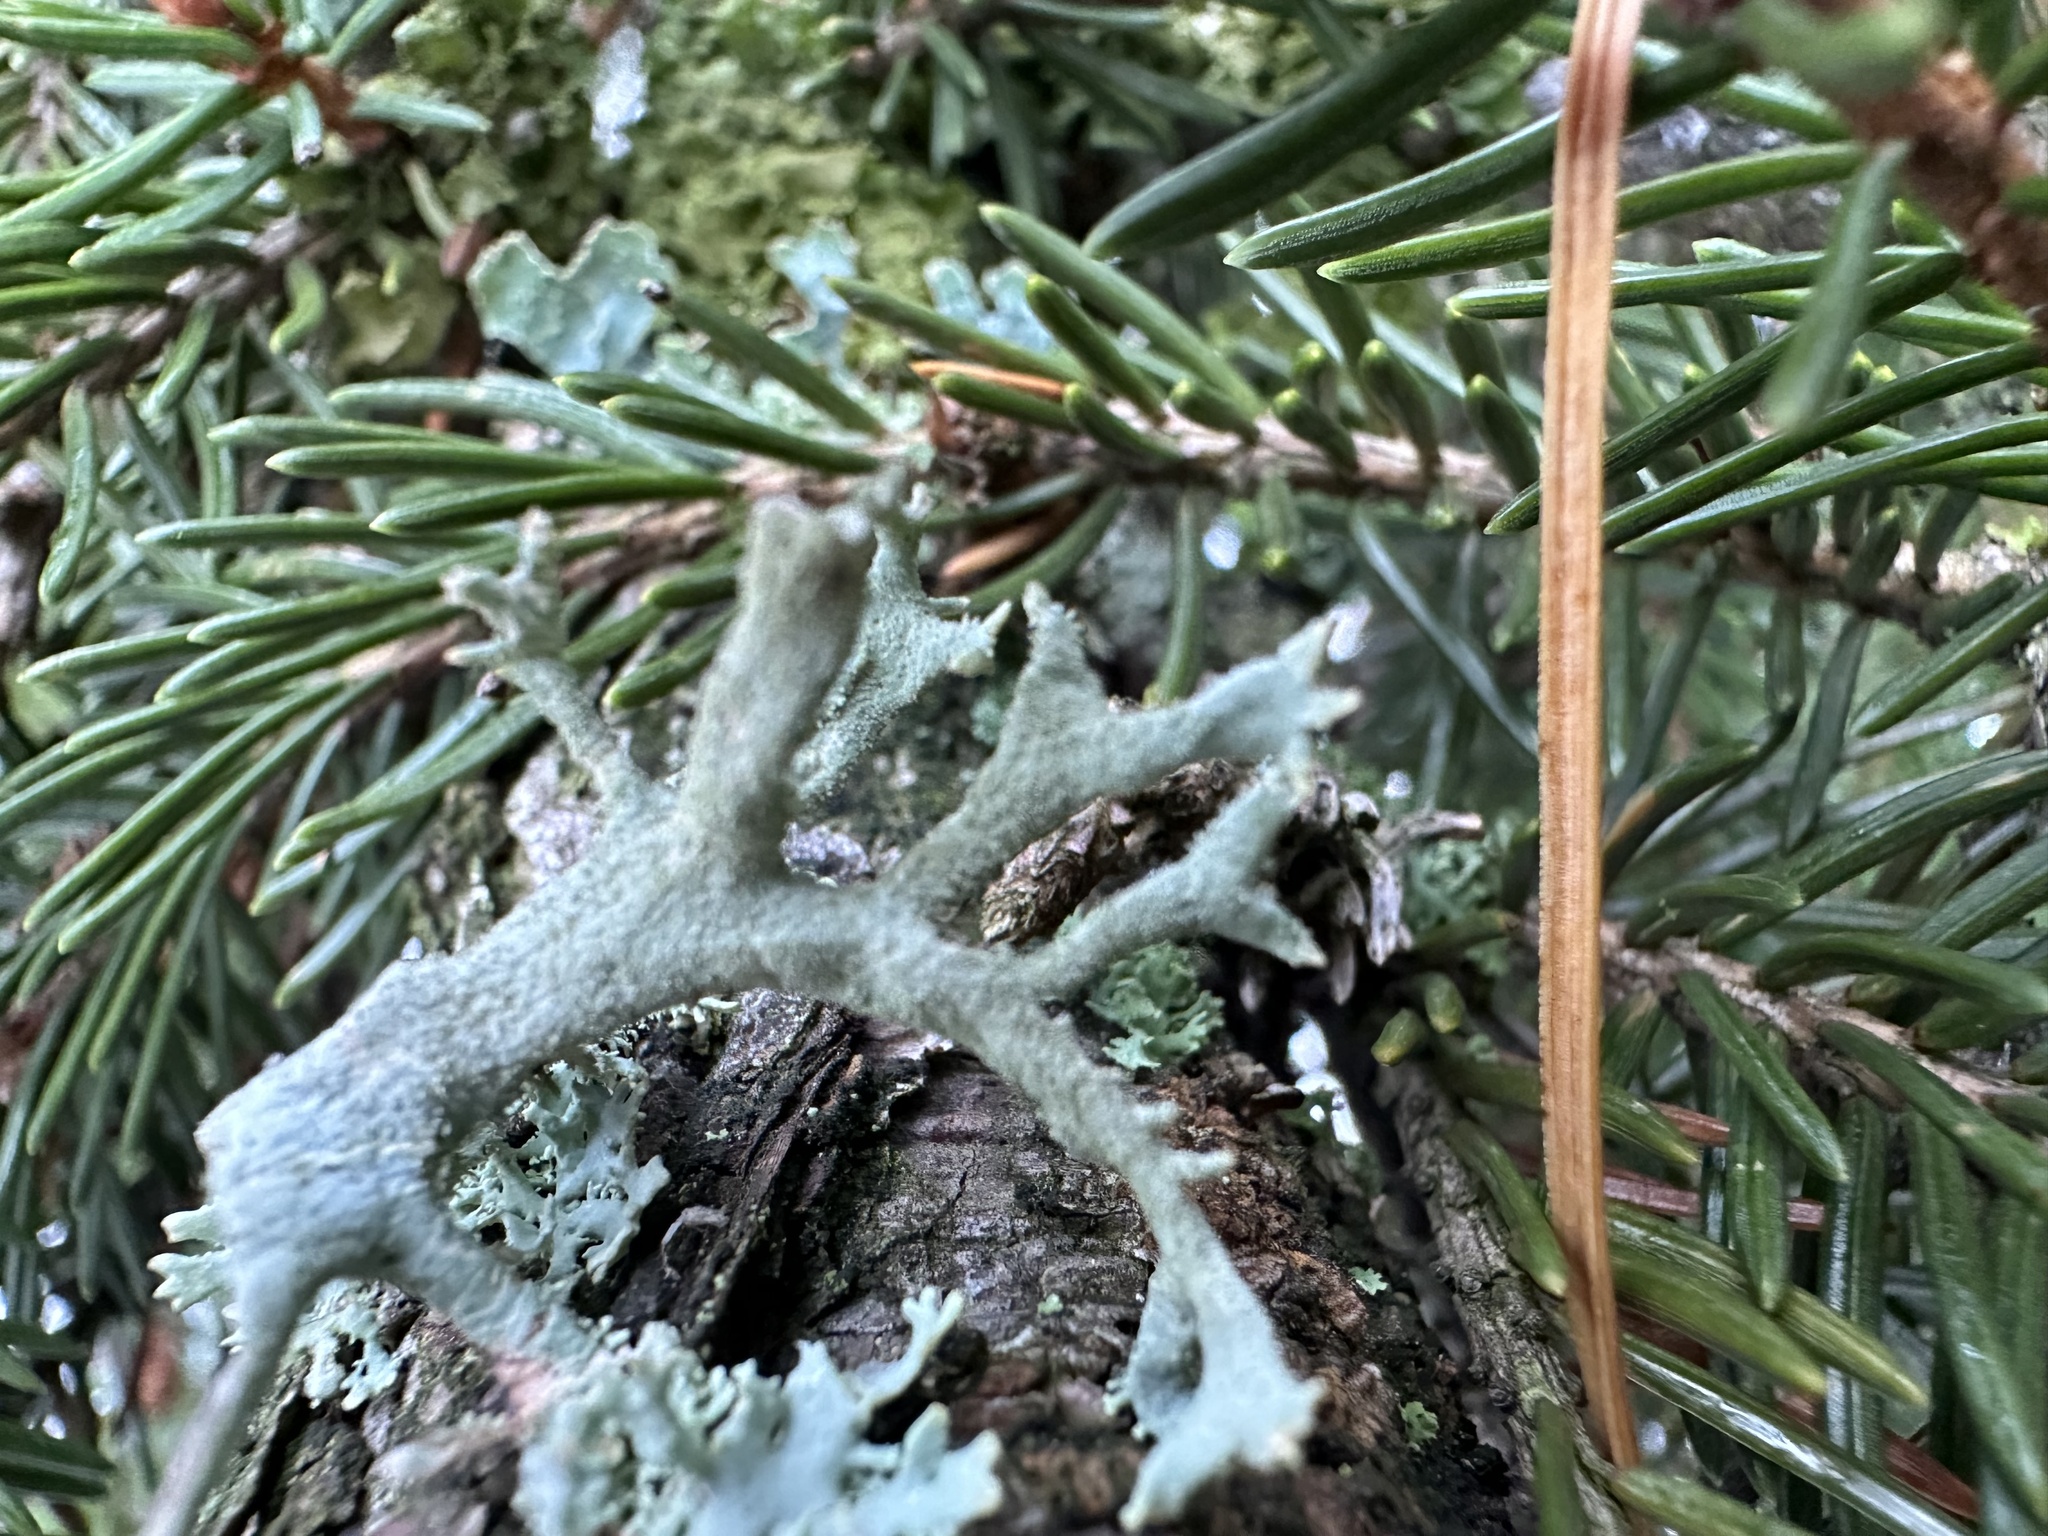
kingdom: Fungi
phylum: Ascomycota
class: Lecanoromycetes
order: Lecanorales
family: Parmeliaceae
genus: Pseudevernia
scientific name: Pseudevernia furfuracea
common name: Tree moss
